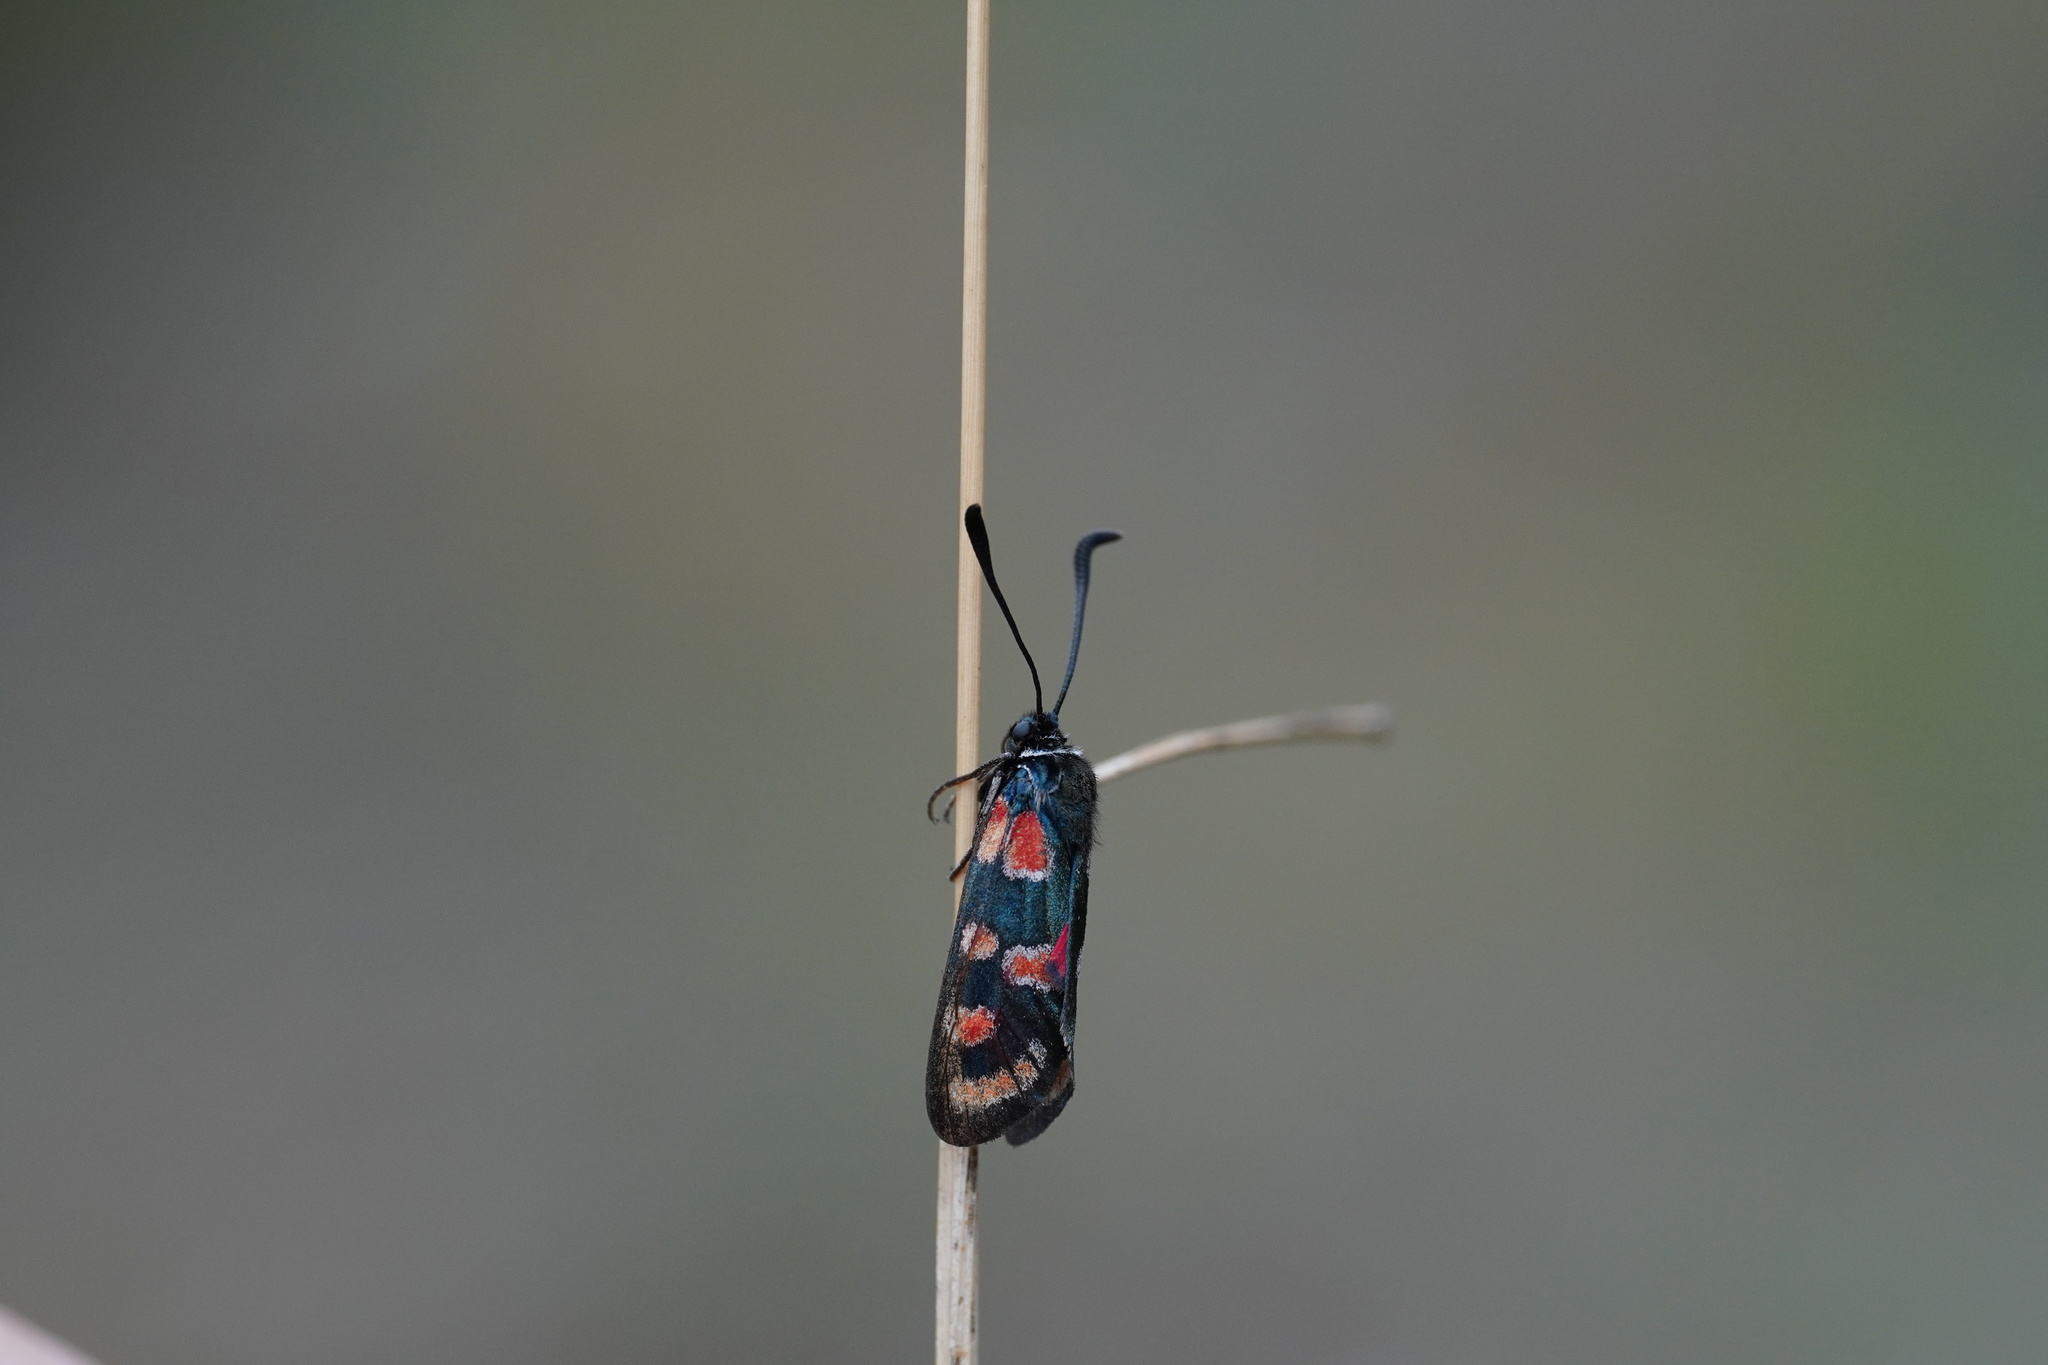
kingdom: Animalia
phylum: Arthropoda
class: Insecta
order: Lepidoptera
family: Zygaenidae
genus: Zygaena
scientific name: Zygaena carniolica
